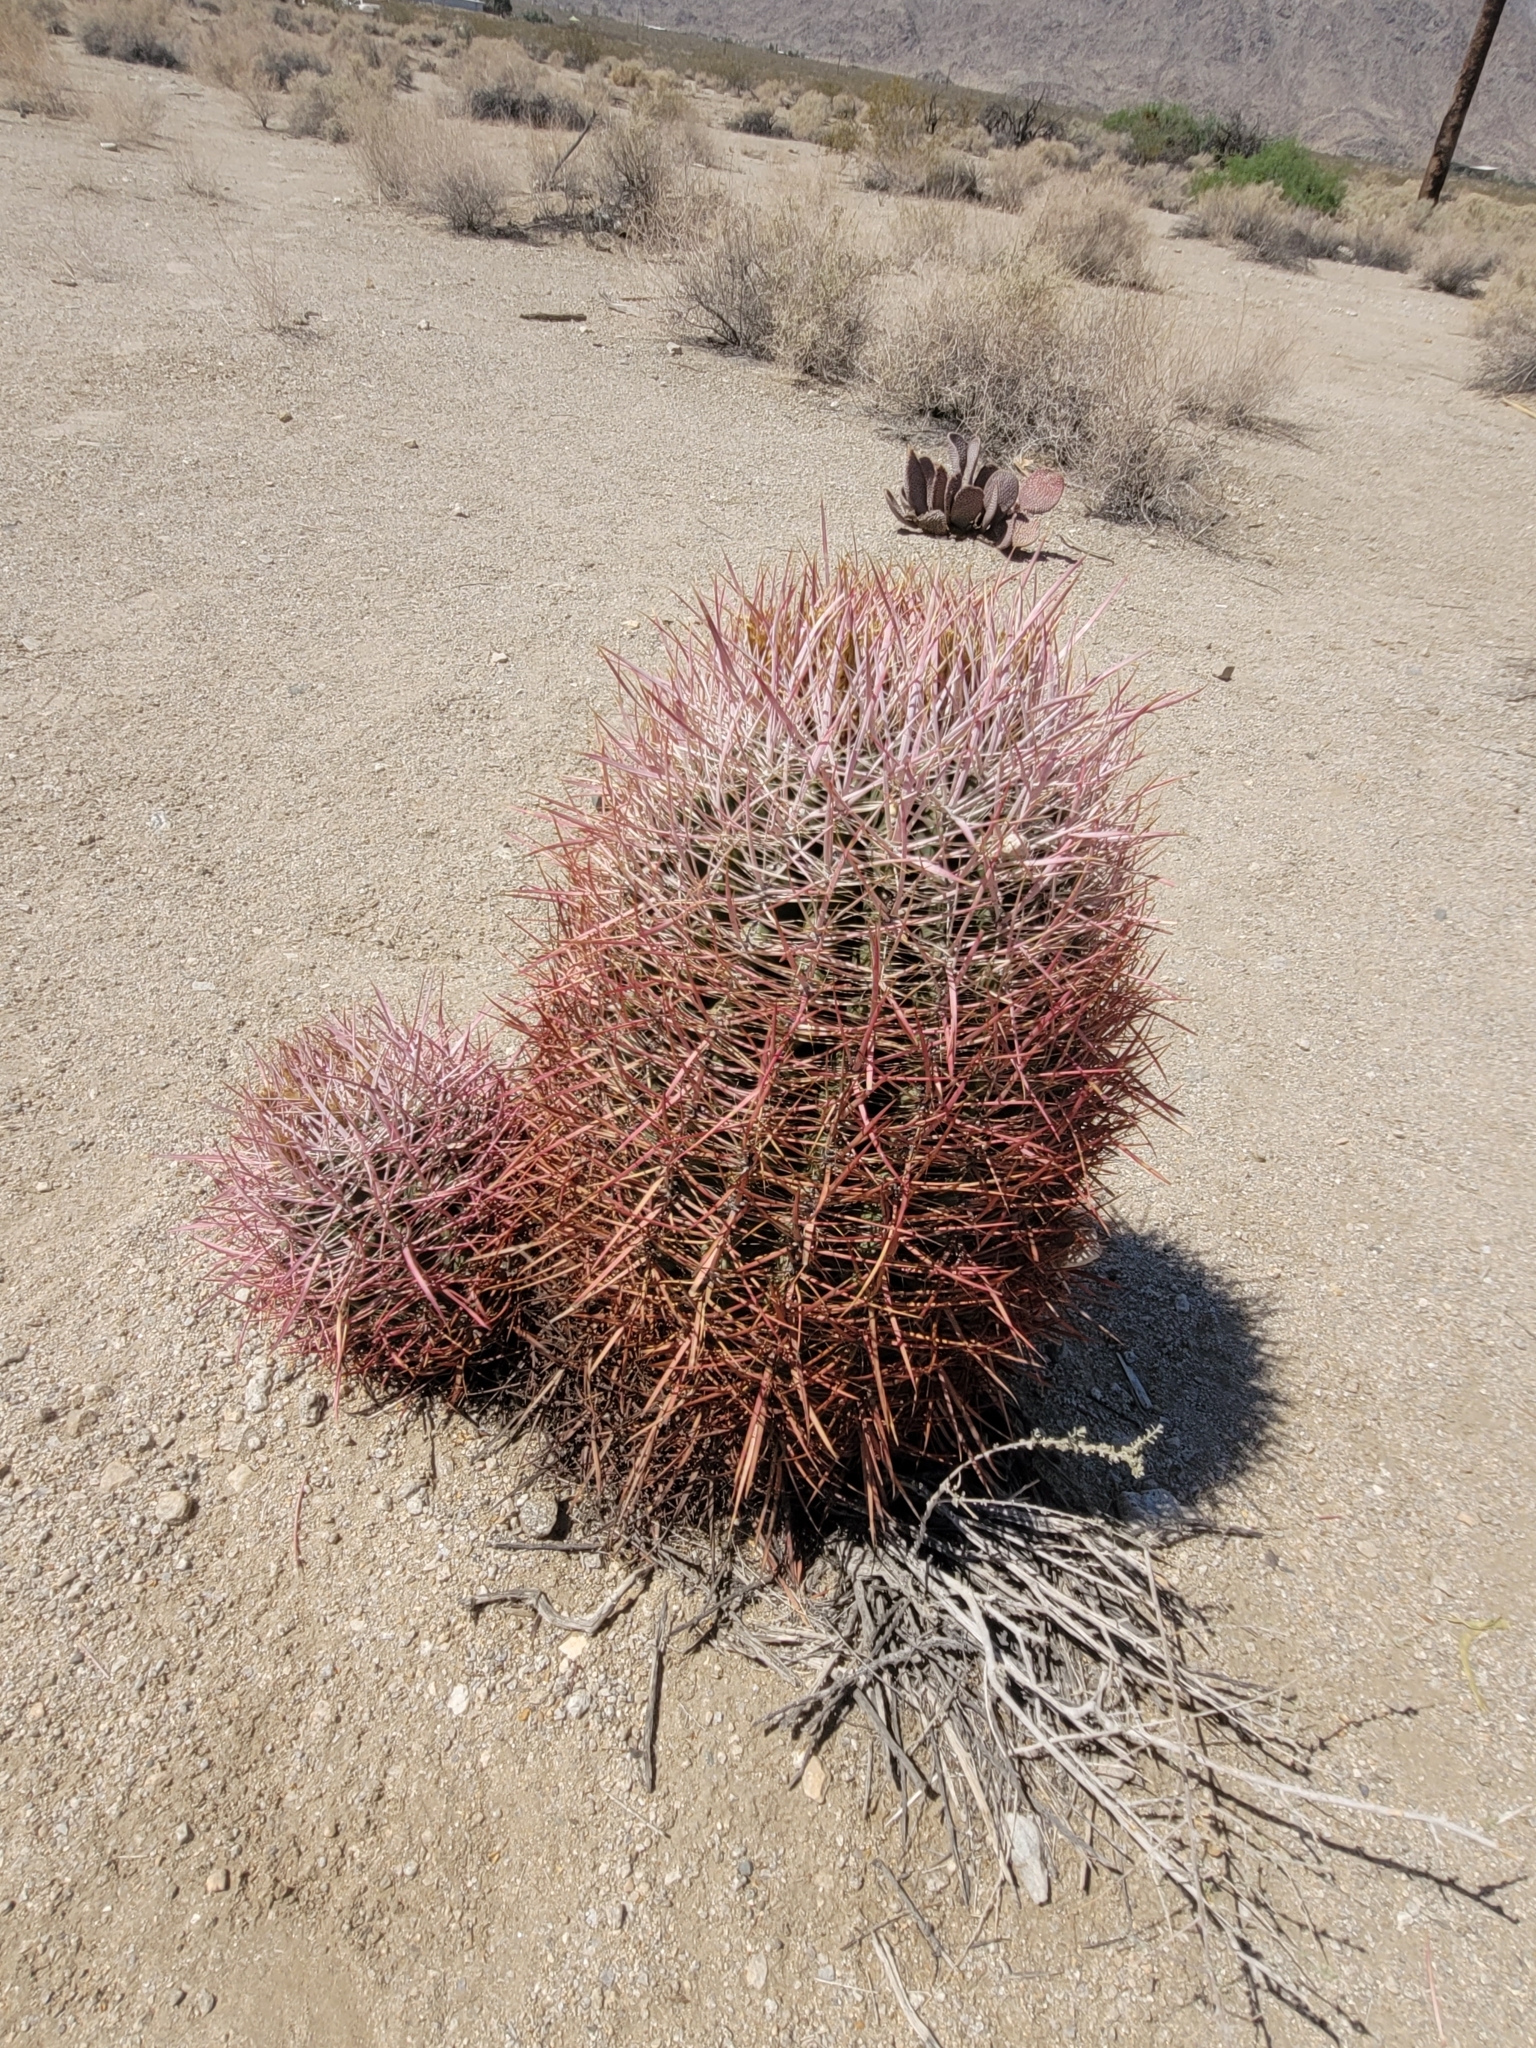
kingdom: Plantae
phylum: Tracheophyta
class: Magnoliopsida
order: Caryophyllales
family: Cactaceae
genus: Ferocactus
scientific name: Ferocactus cylindraceus
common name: California barrel cactus
